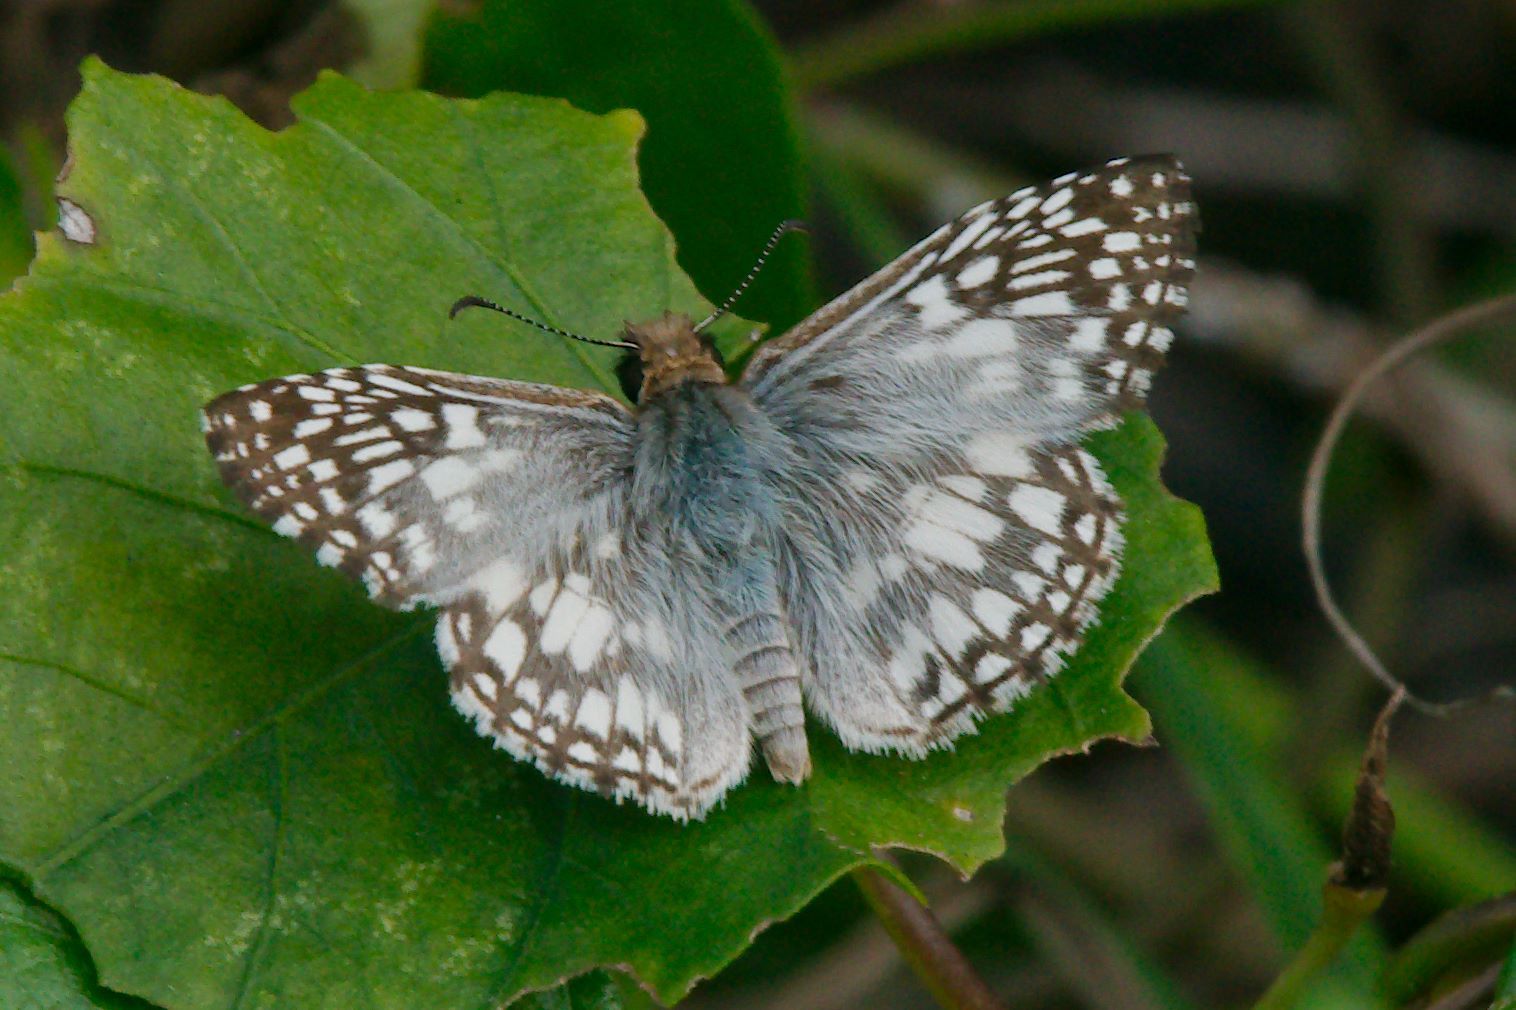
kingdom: Animalia
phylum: Arthropoda
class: Insecta
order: Lepidoptera
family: Hesperiidae
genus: Pyrgus
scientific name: Pyrgus oileus
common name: Tropical checkered-skipper
